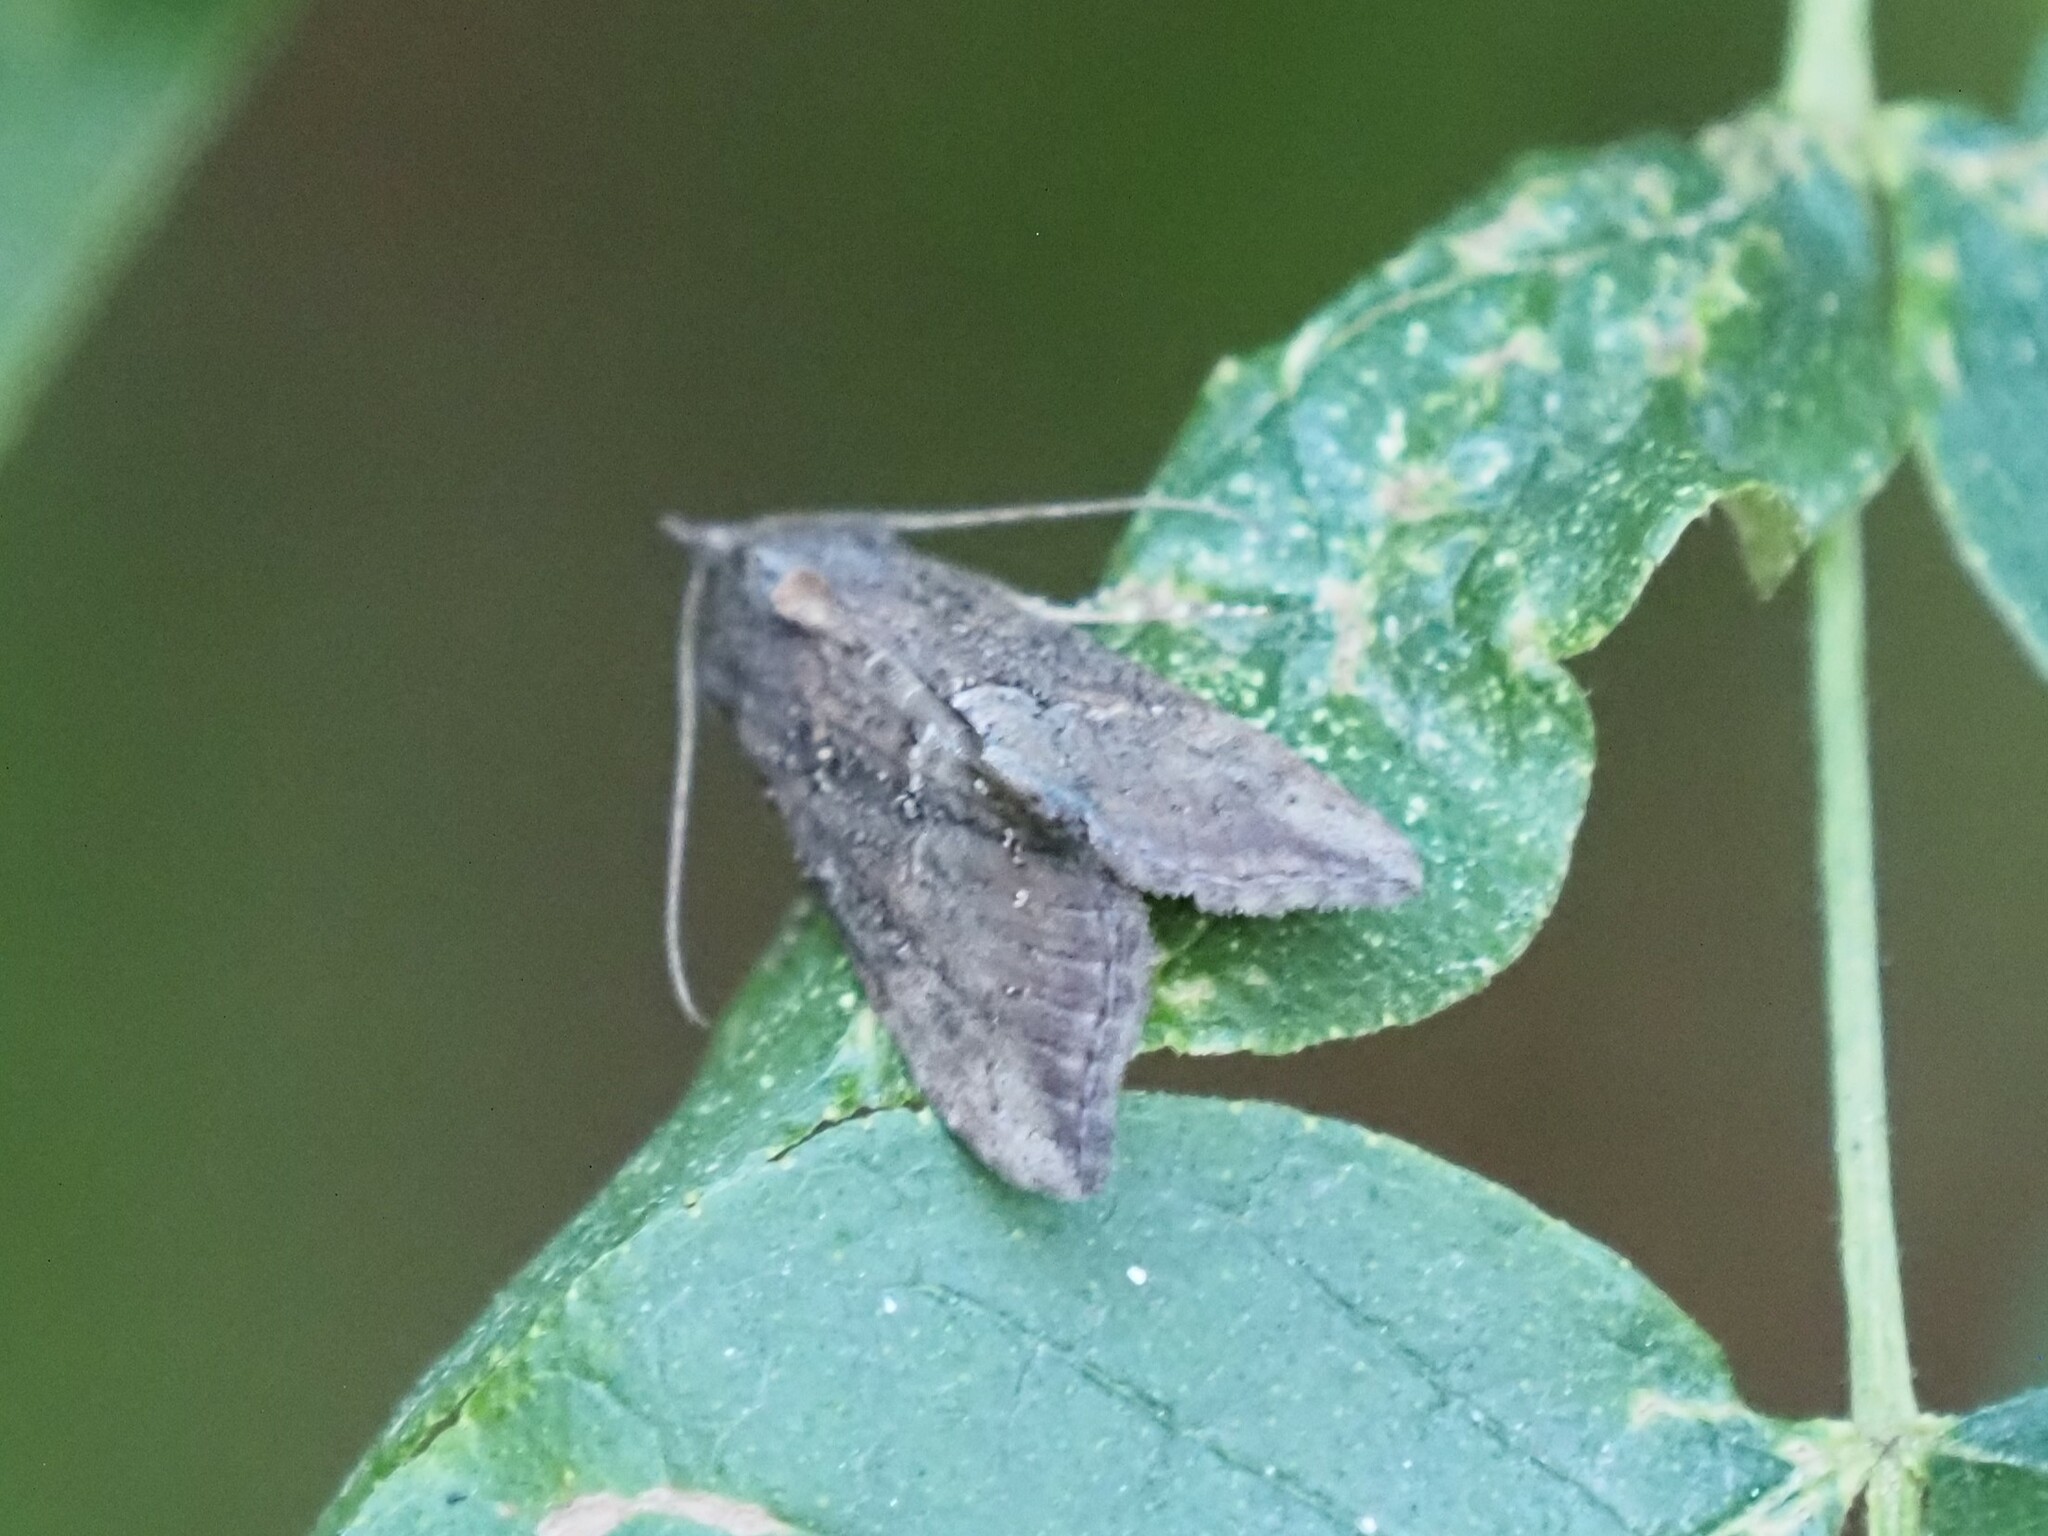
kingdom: Animalia
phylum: Arthropoda
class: Insecta
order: Lepidoptera
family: Erebidae
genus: Hypena
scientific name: Hypena scabra
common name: Green cloverworm
